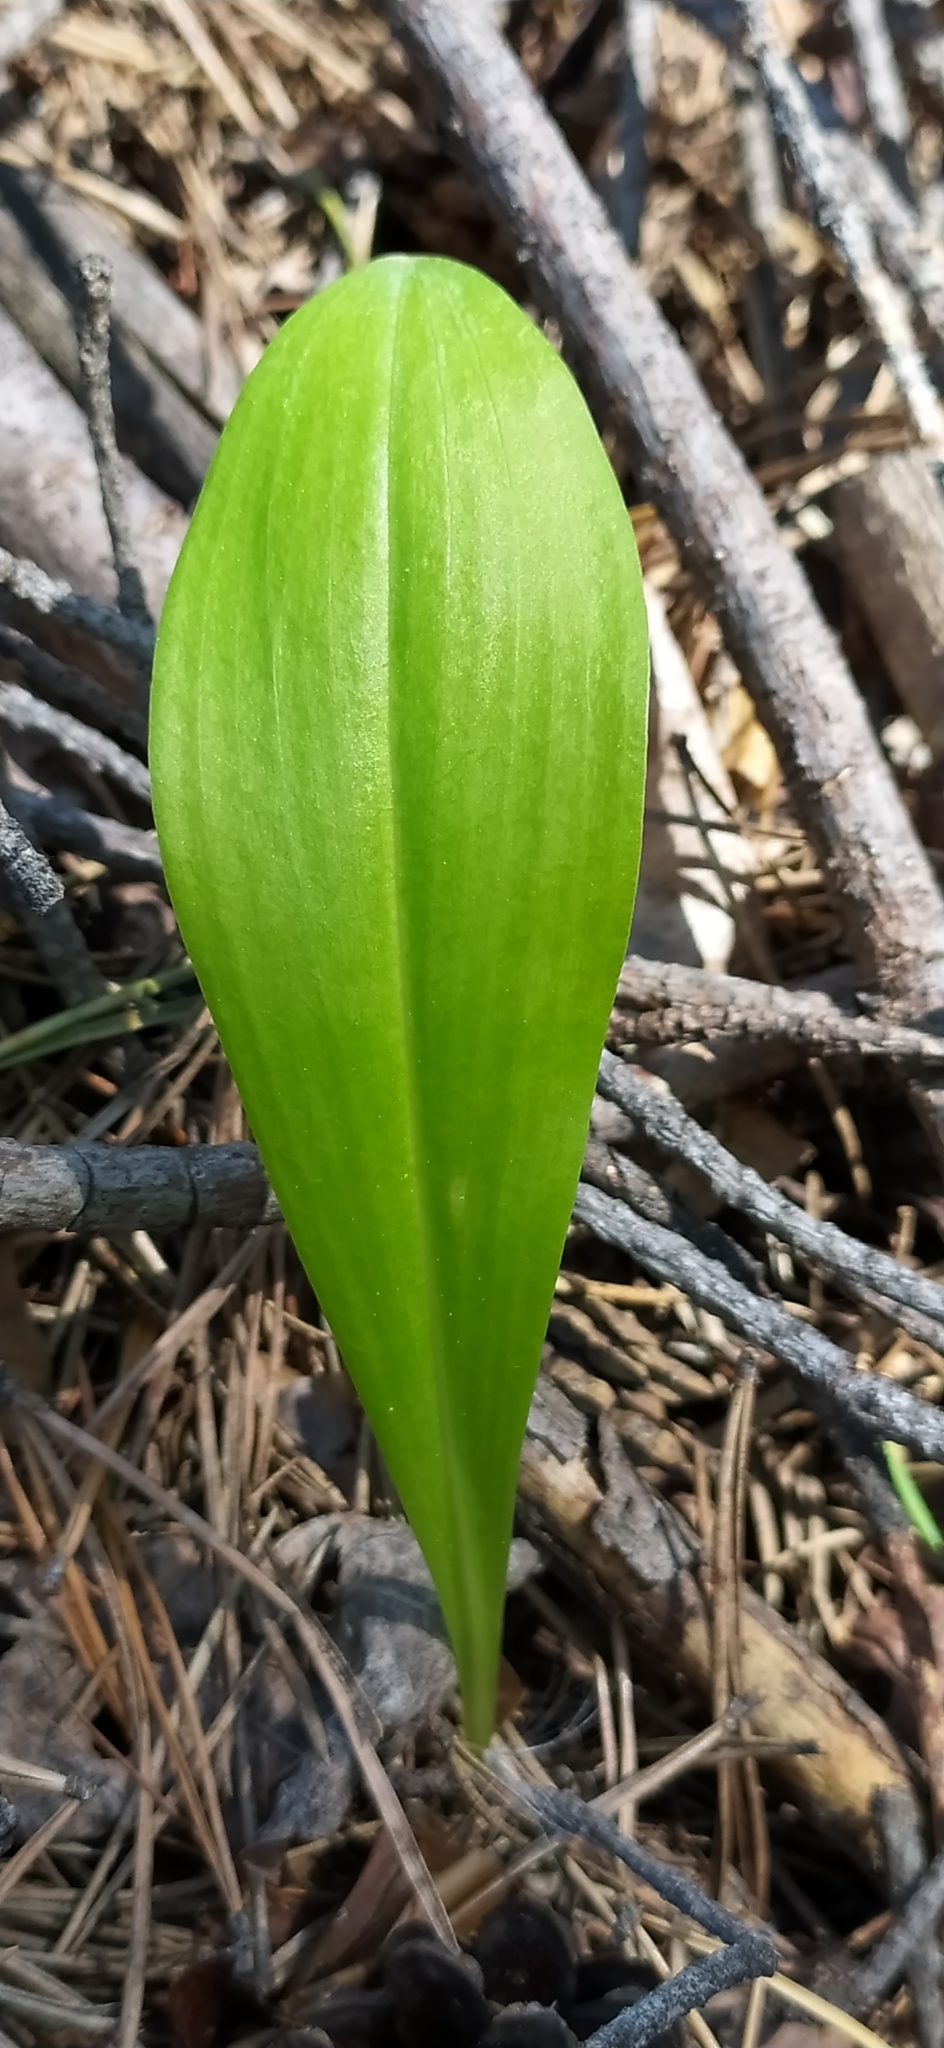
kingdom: Plantae
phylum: Tracheophyta
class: Liliopsida
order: Asparagales
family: Orchidaceae
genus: Platanthera
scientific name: Platanthera bifolia
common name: Lesser butterfly-orchid
